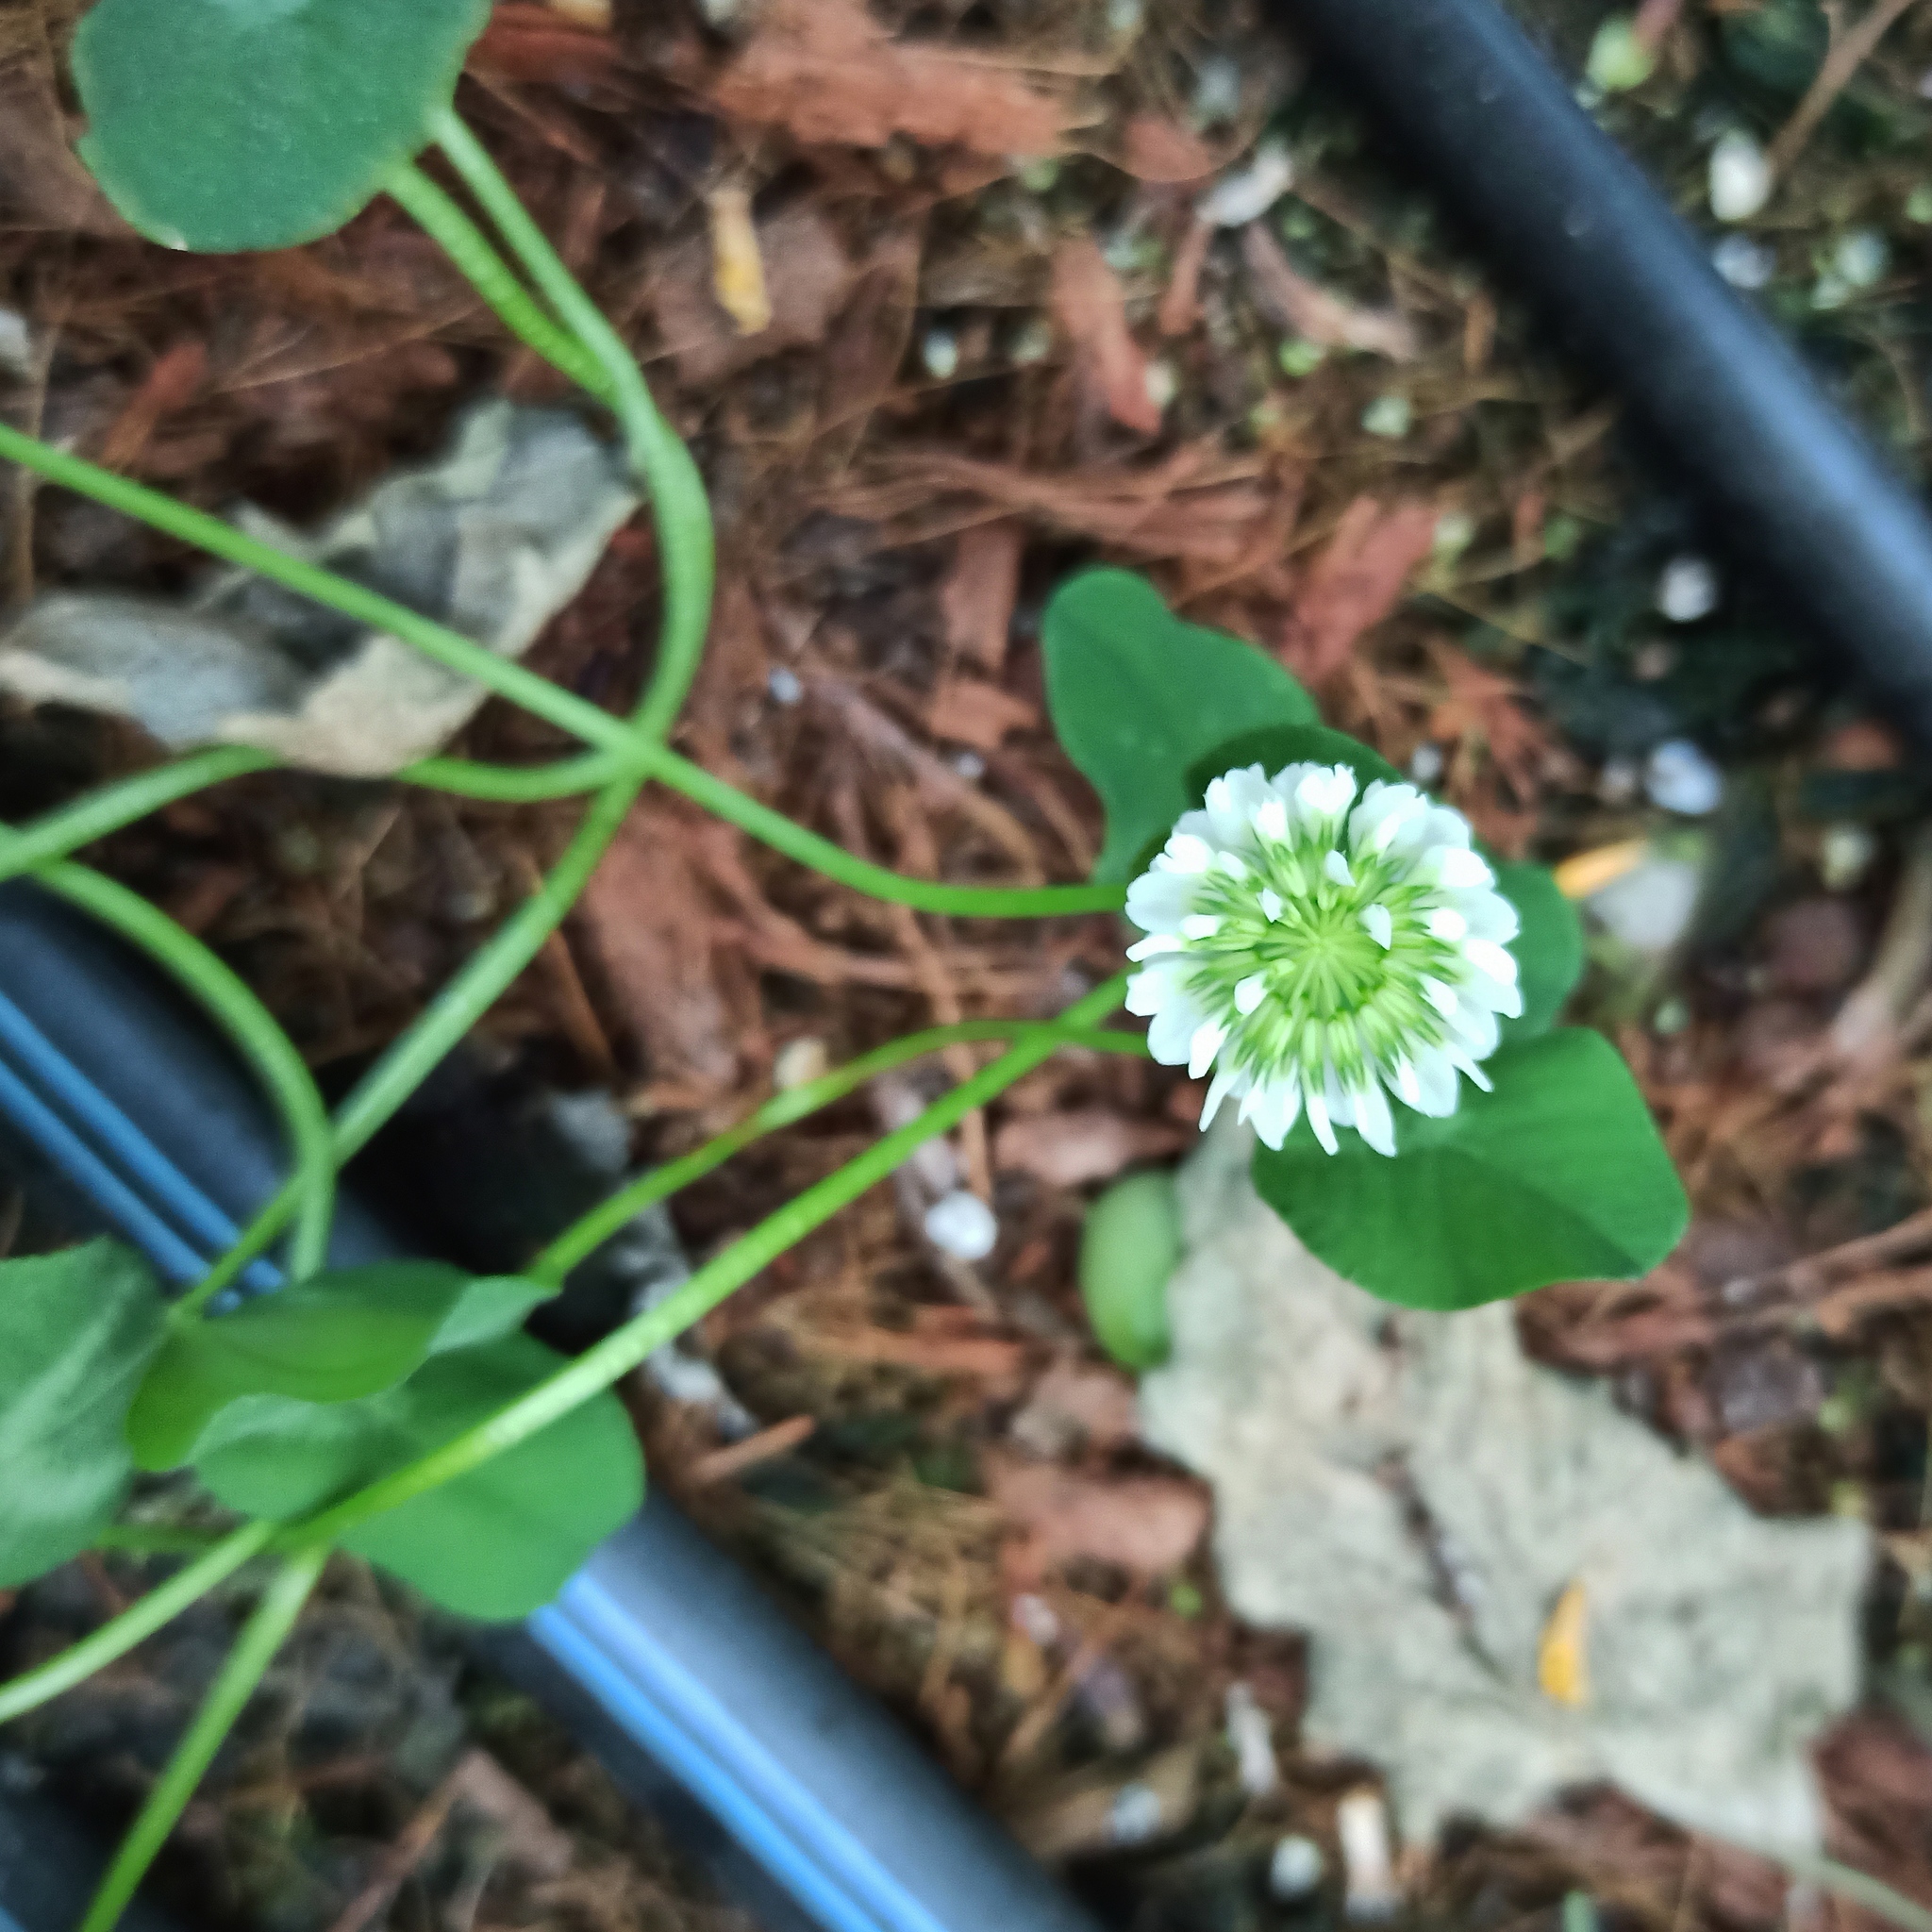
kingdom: Plantae
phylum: Tracheophyta
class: Magnoliopsida
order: Fabales
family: Fabaceae
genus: Trifolium
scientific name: Trifolium repens
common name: White clover
